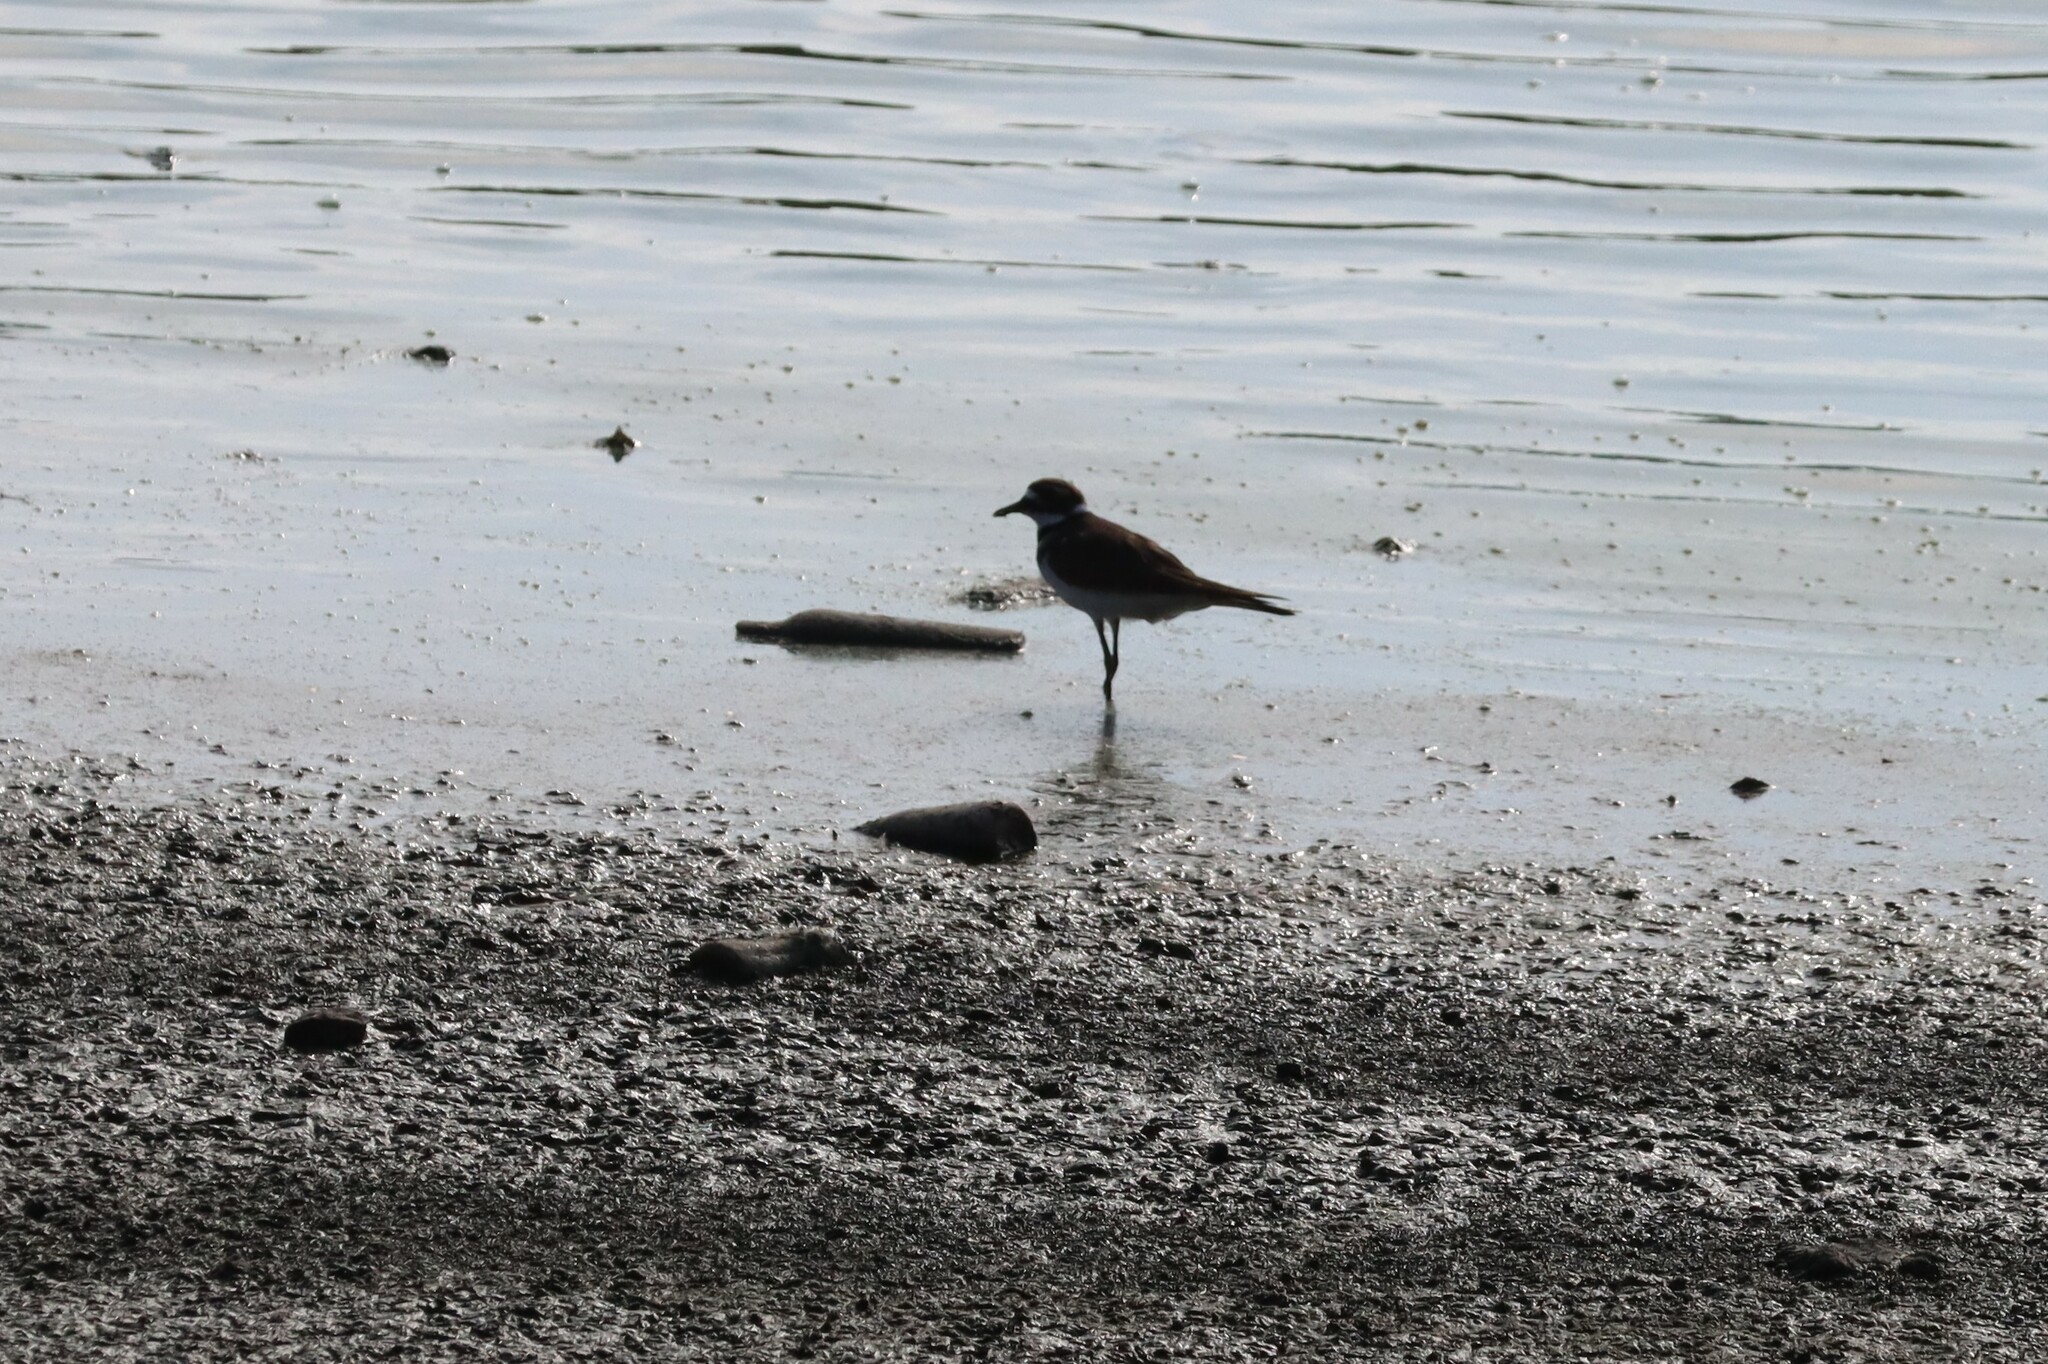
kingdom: Animalia
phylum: Chordata
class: Aves
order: Charadriiformes
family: Charadriidae
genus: Charadrius
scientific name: Charadrius vociferus
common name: Killdeer
